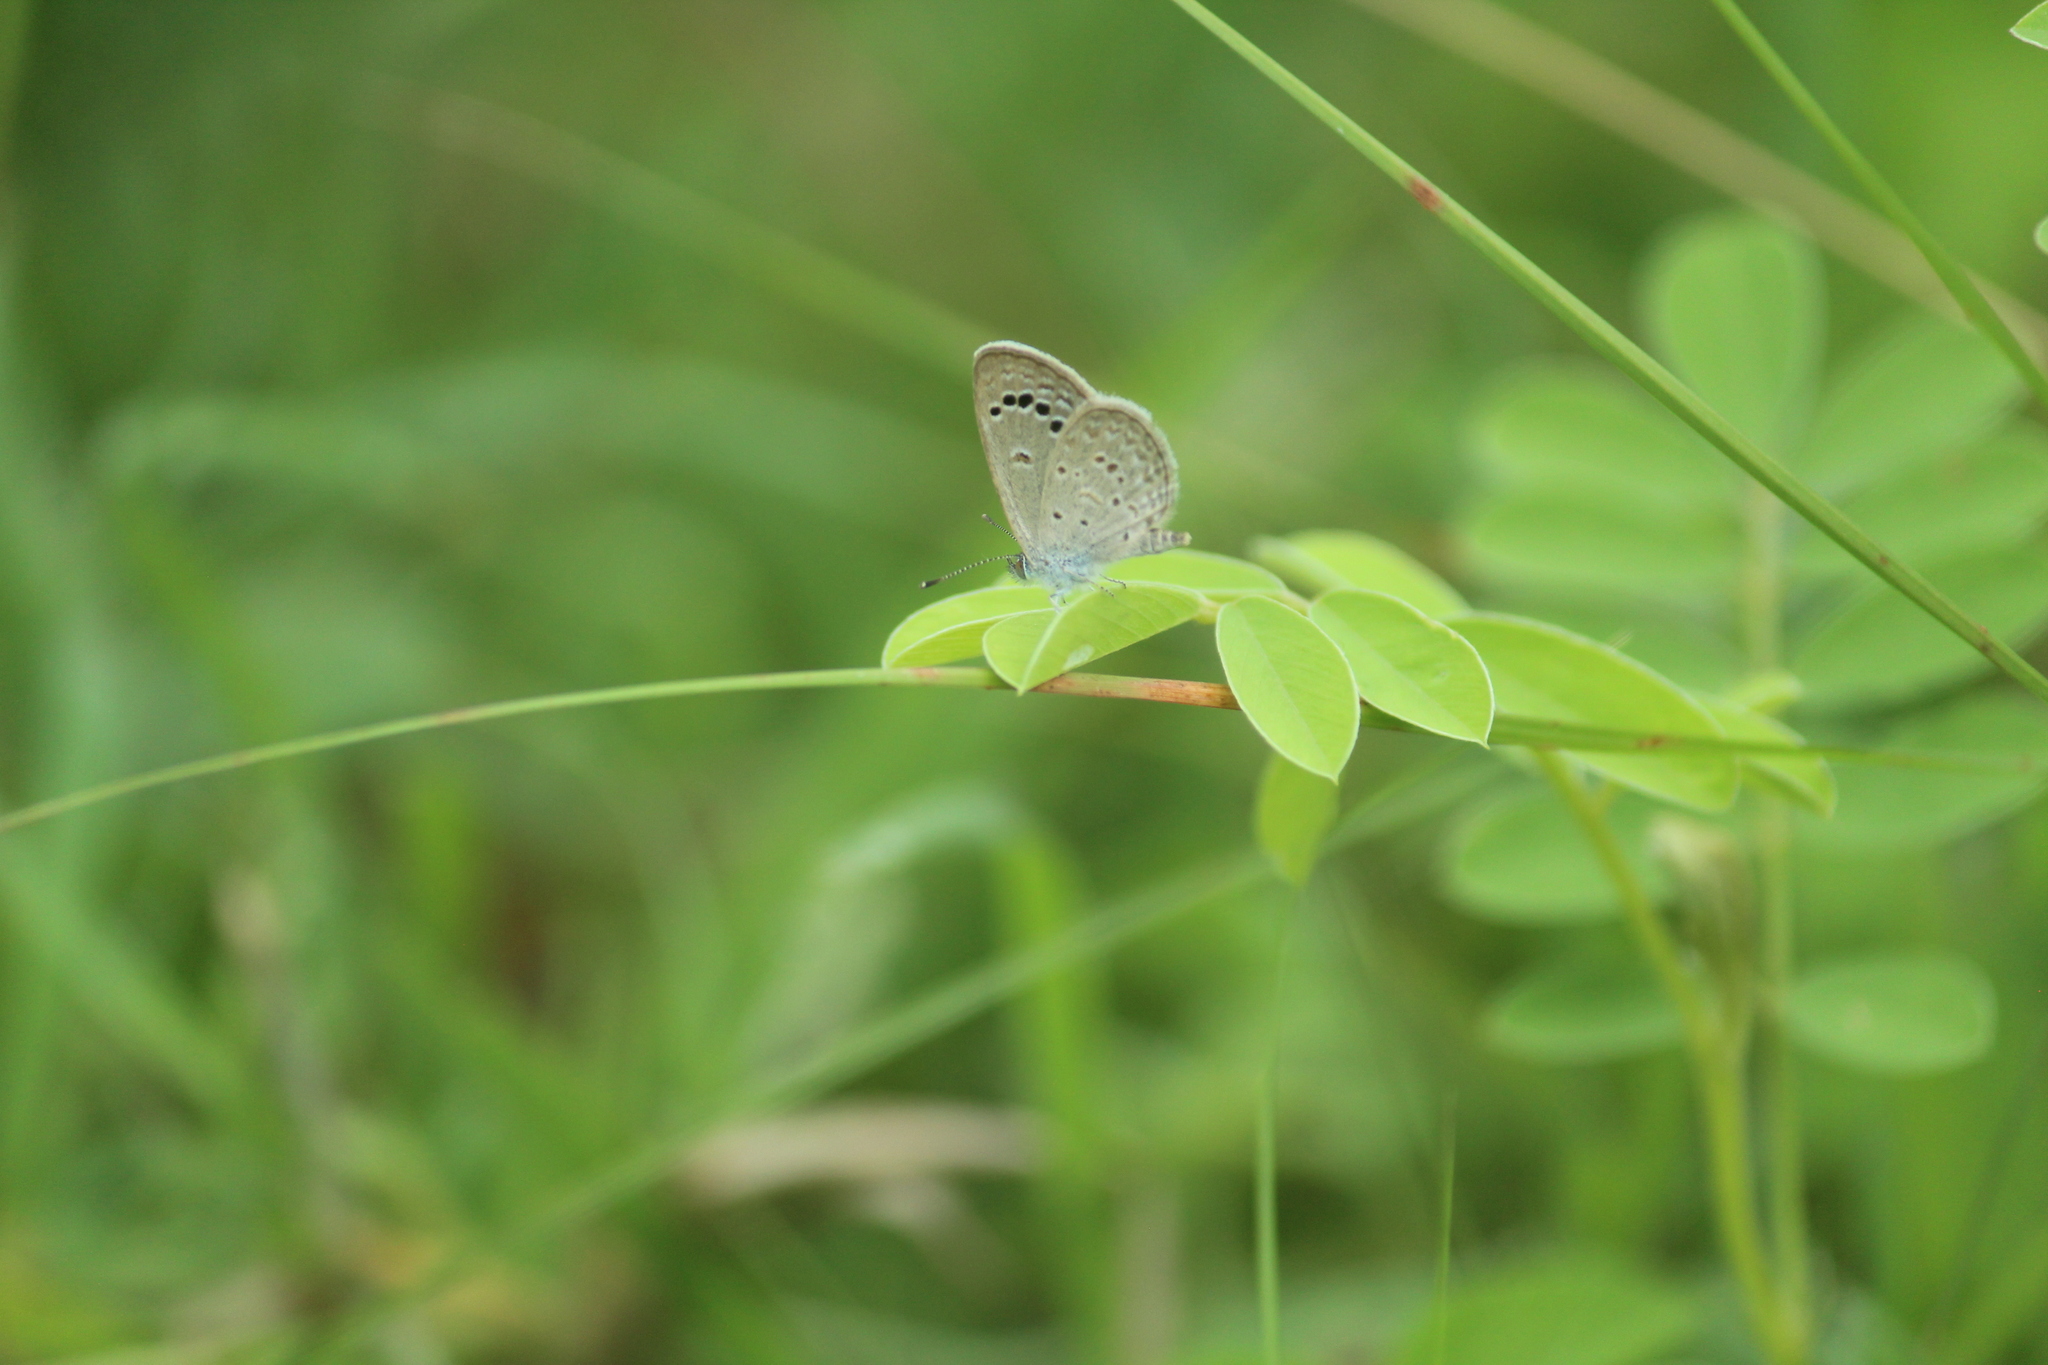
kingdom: Animalia
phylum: Arthropoda
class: Insecta
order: Lepidoptera
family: Lycaenidae
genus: Zizina
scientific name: Zizina otis
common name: Lesser grass blue
